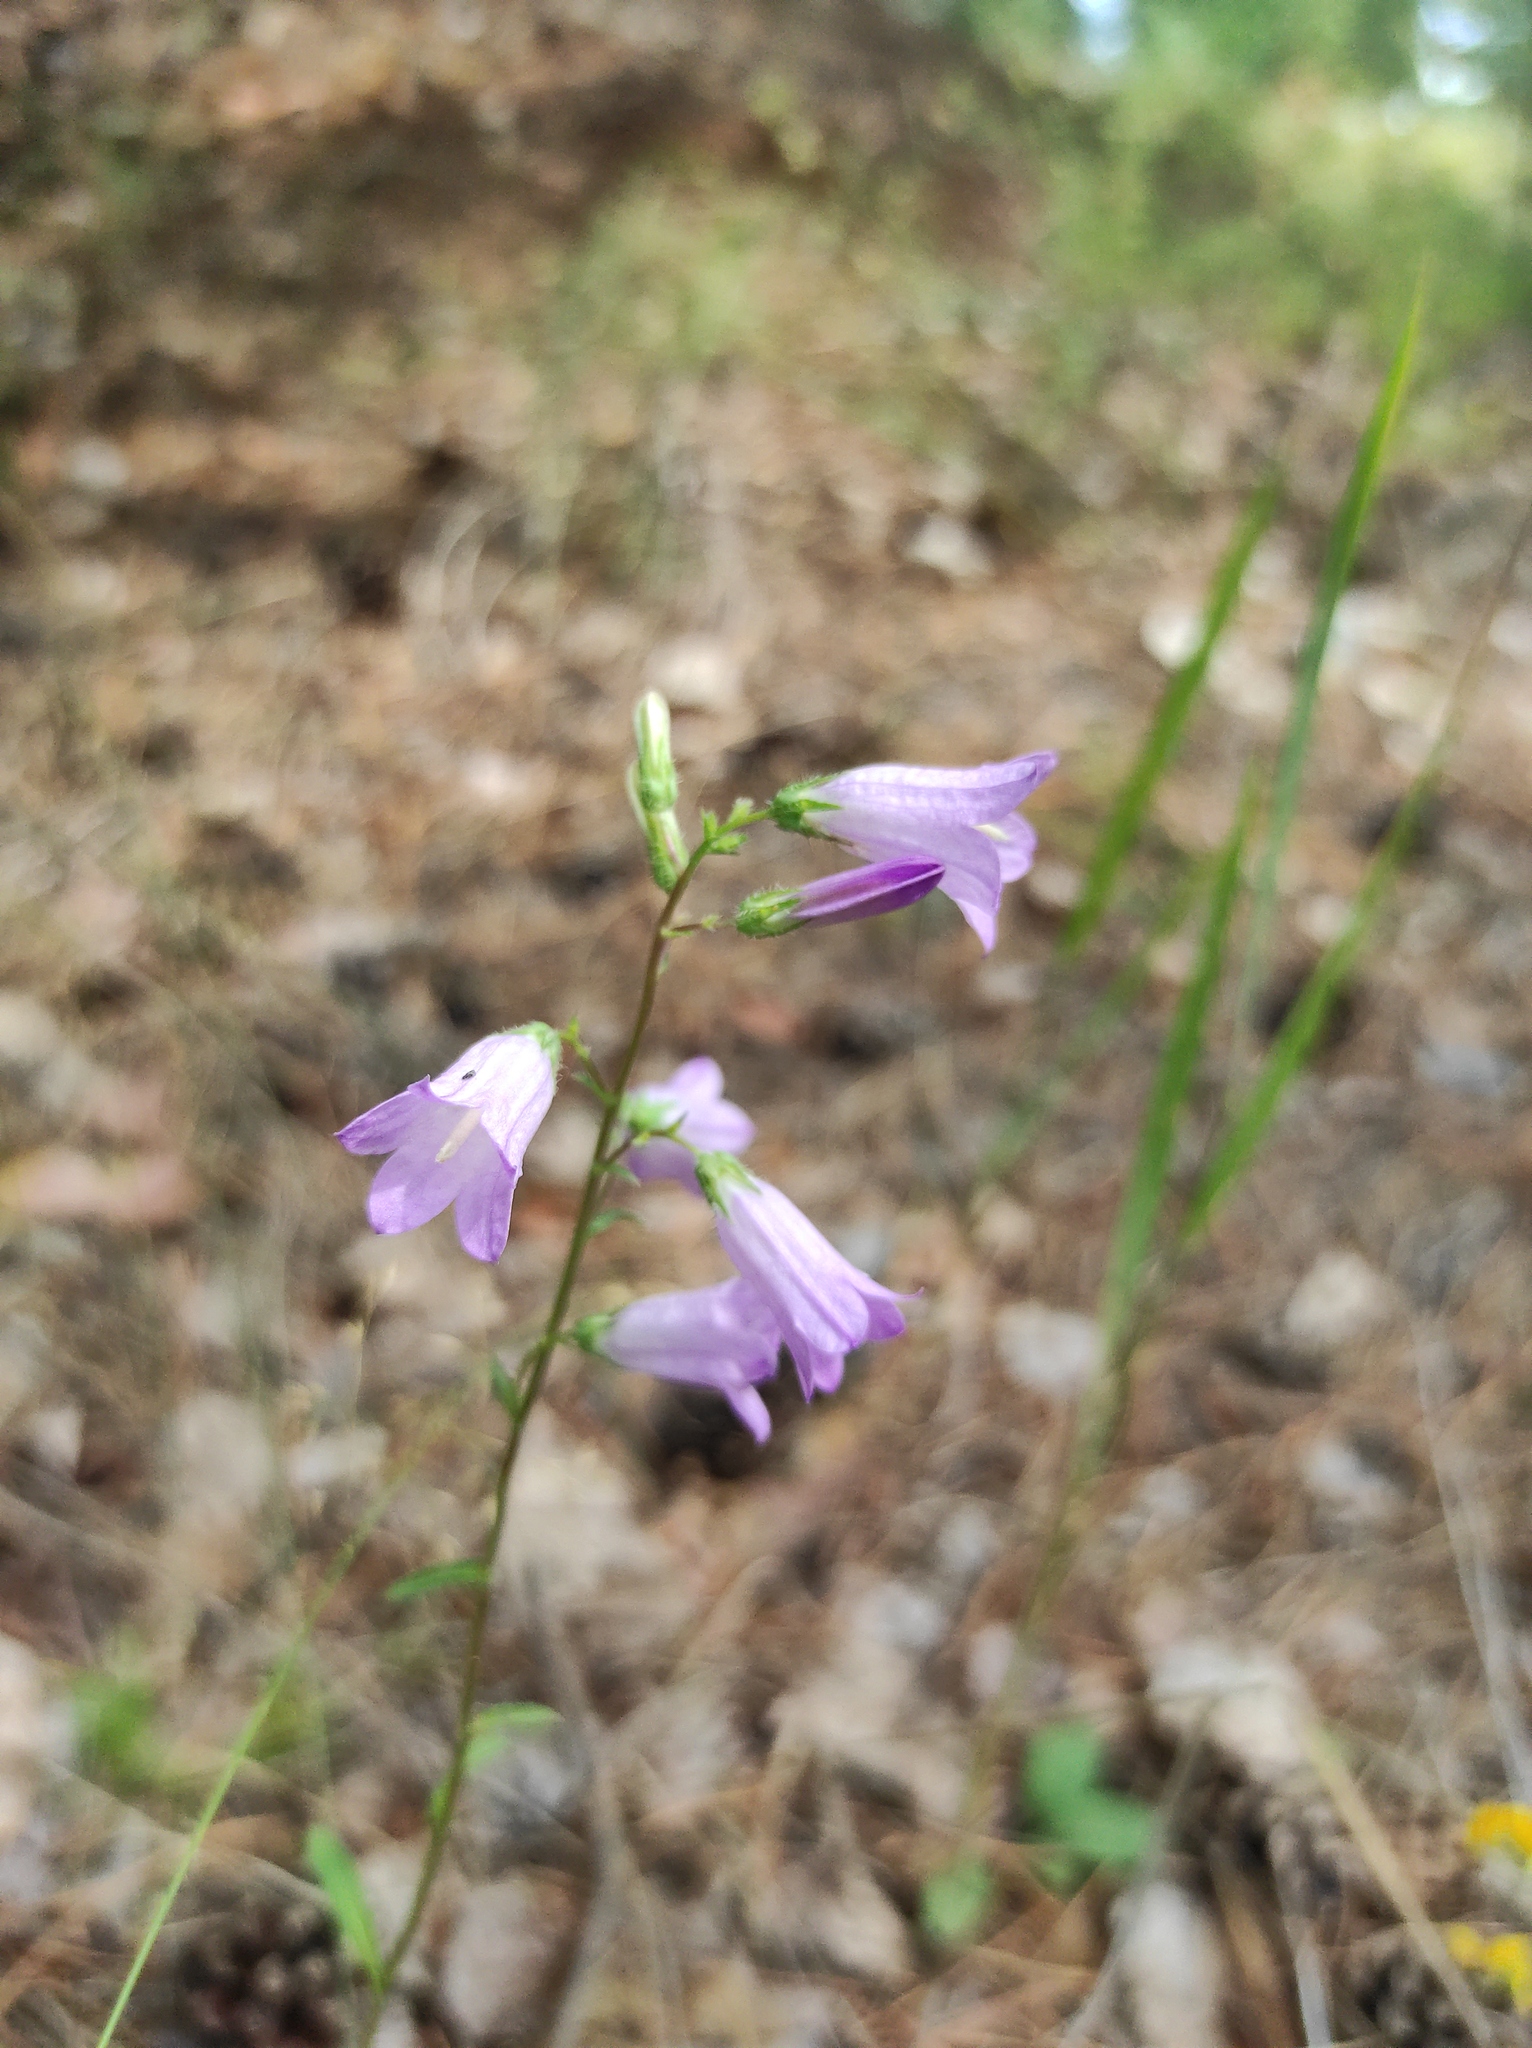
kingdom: Plantae
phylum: Tracheophyta
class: Magnoliopsida
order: Asterales
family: Campanulaceae
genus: Campanula
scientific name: Campanula sibirica
